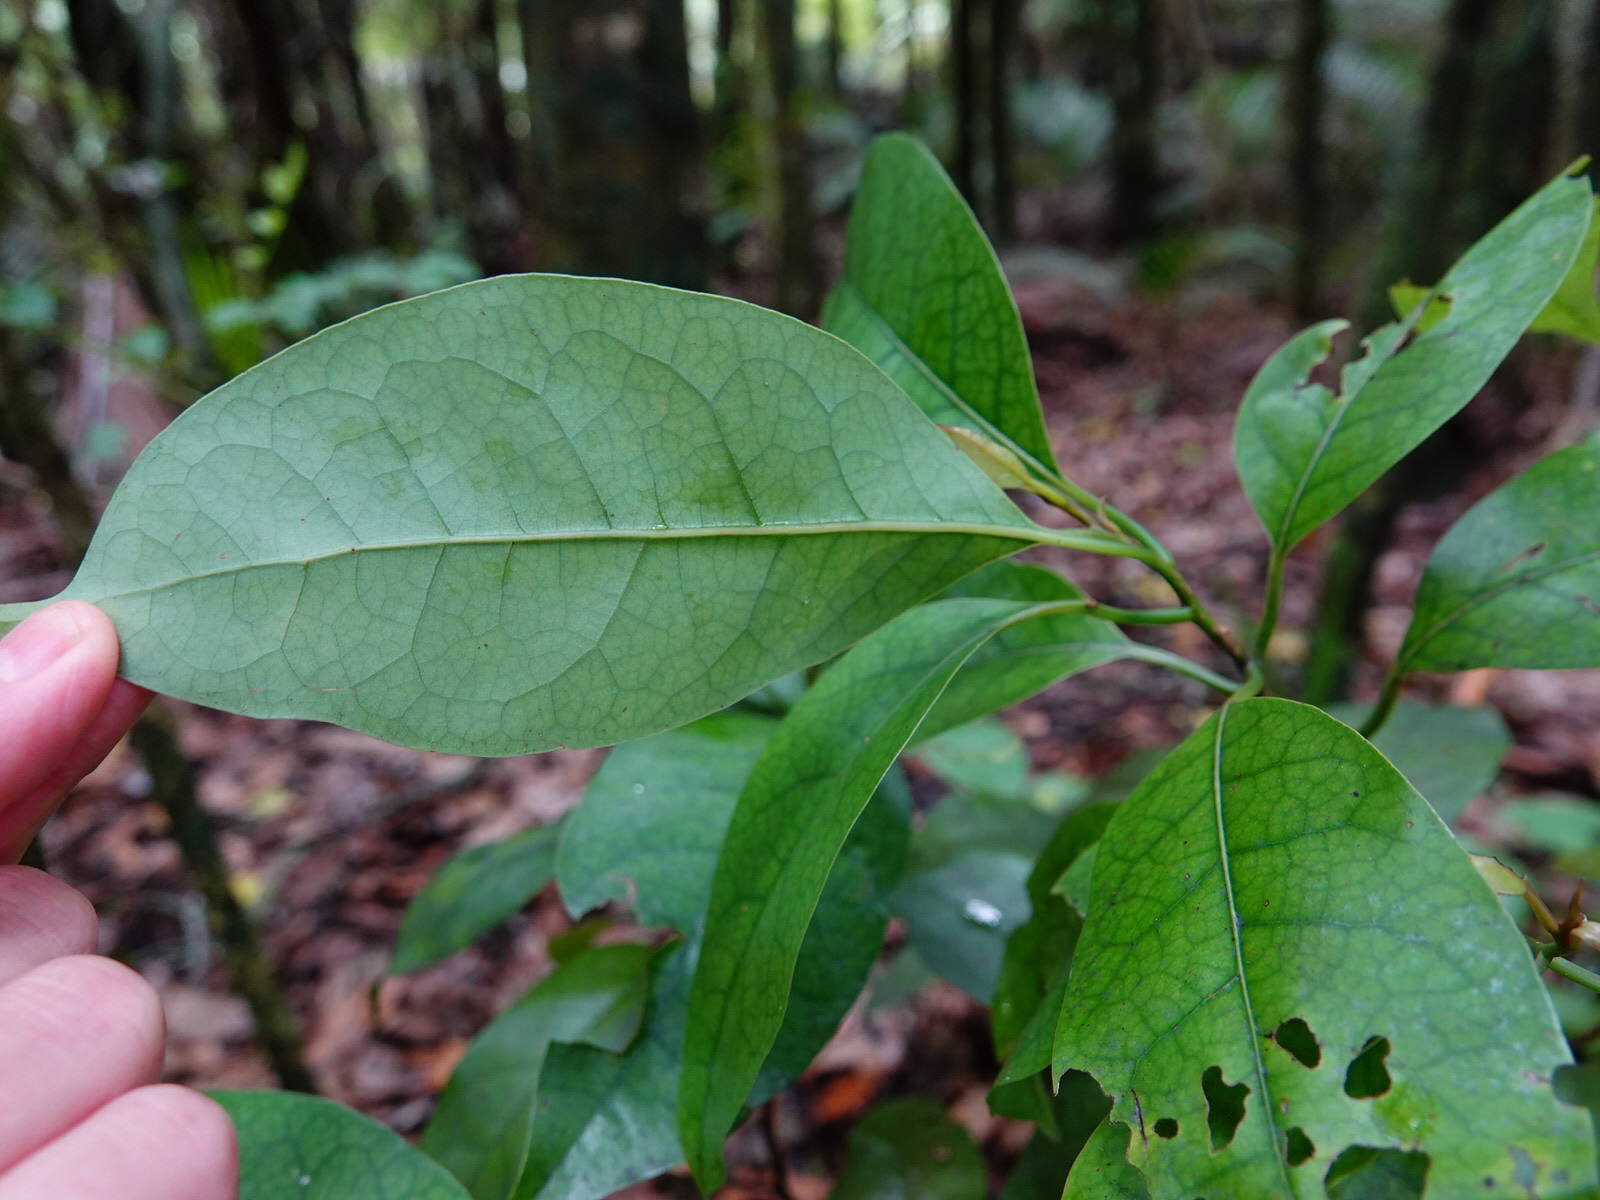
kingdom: Plantae
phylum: Tracheophyta
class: Magnoliopsida
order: Laurales
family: Lauraceae
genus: Litsea
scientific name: Litsea calicaris
